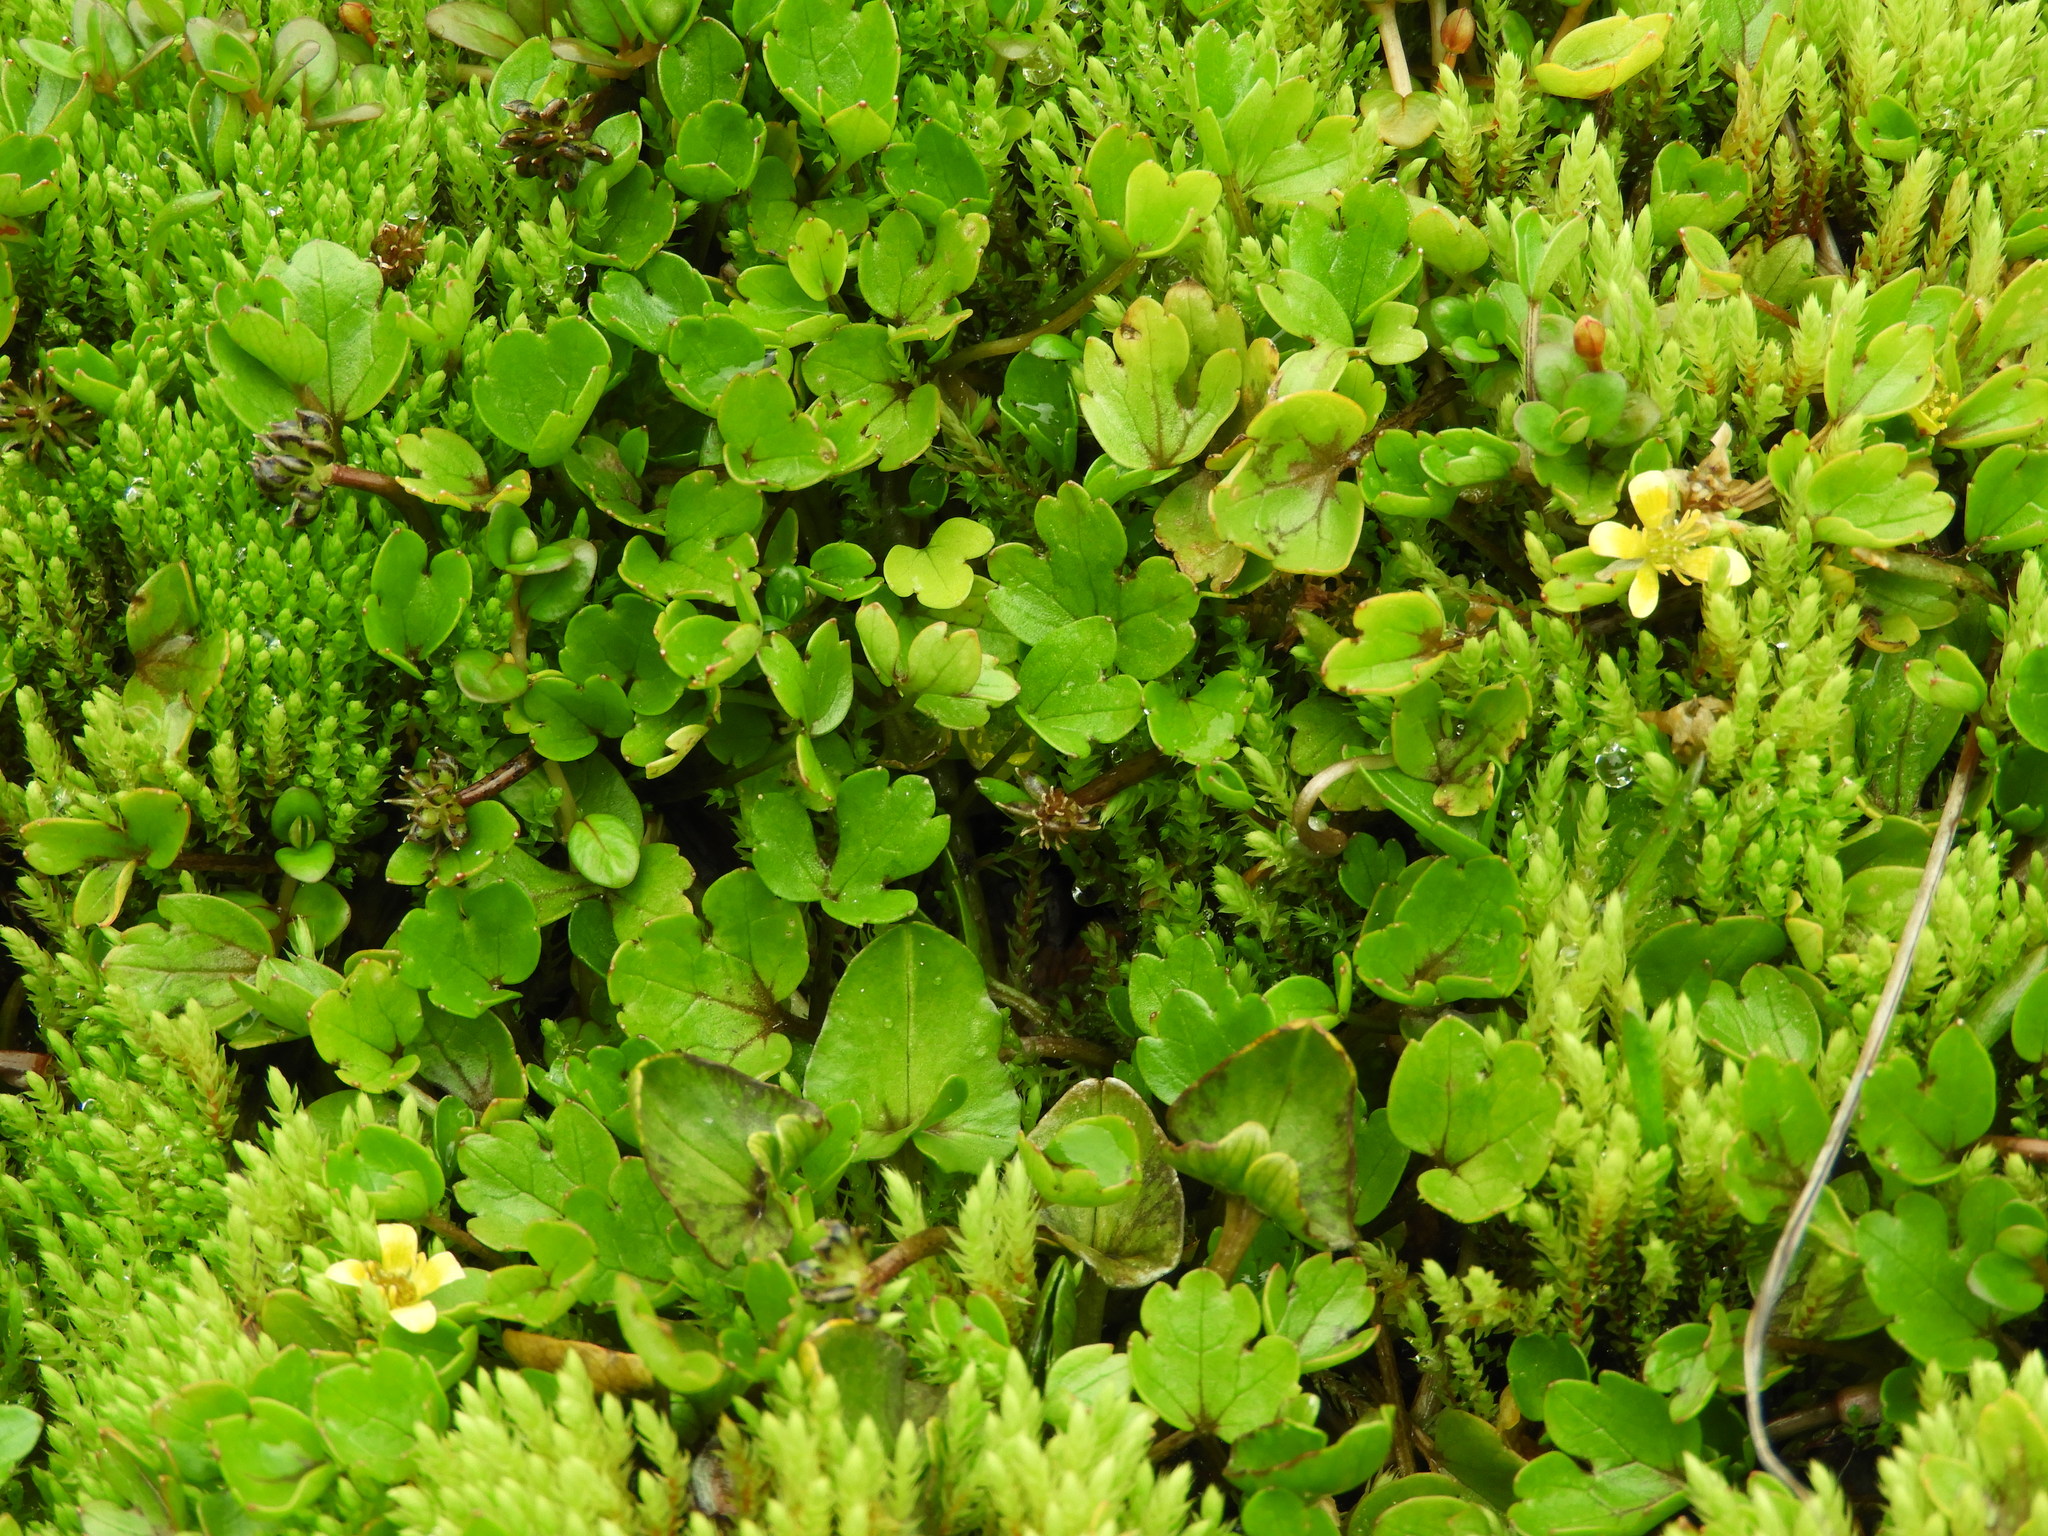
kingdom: Plantae
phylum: Tracheophyta
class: Magnoliopsida
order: Ranunculales
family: Ranunculaceae
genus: Caltha
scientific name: Caltha obtusa
